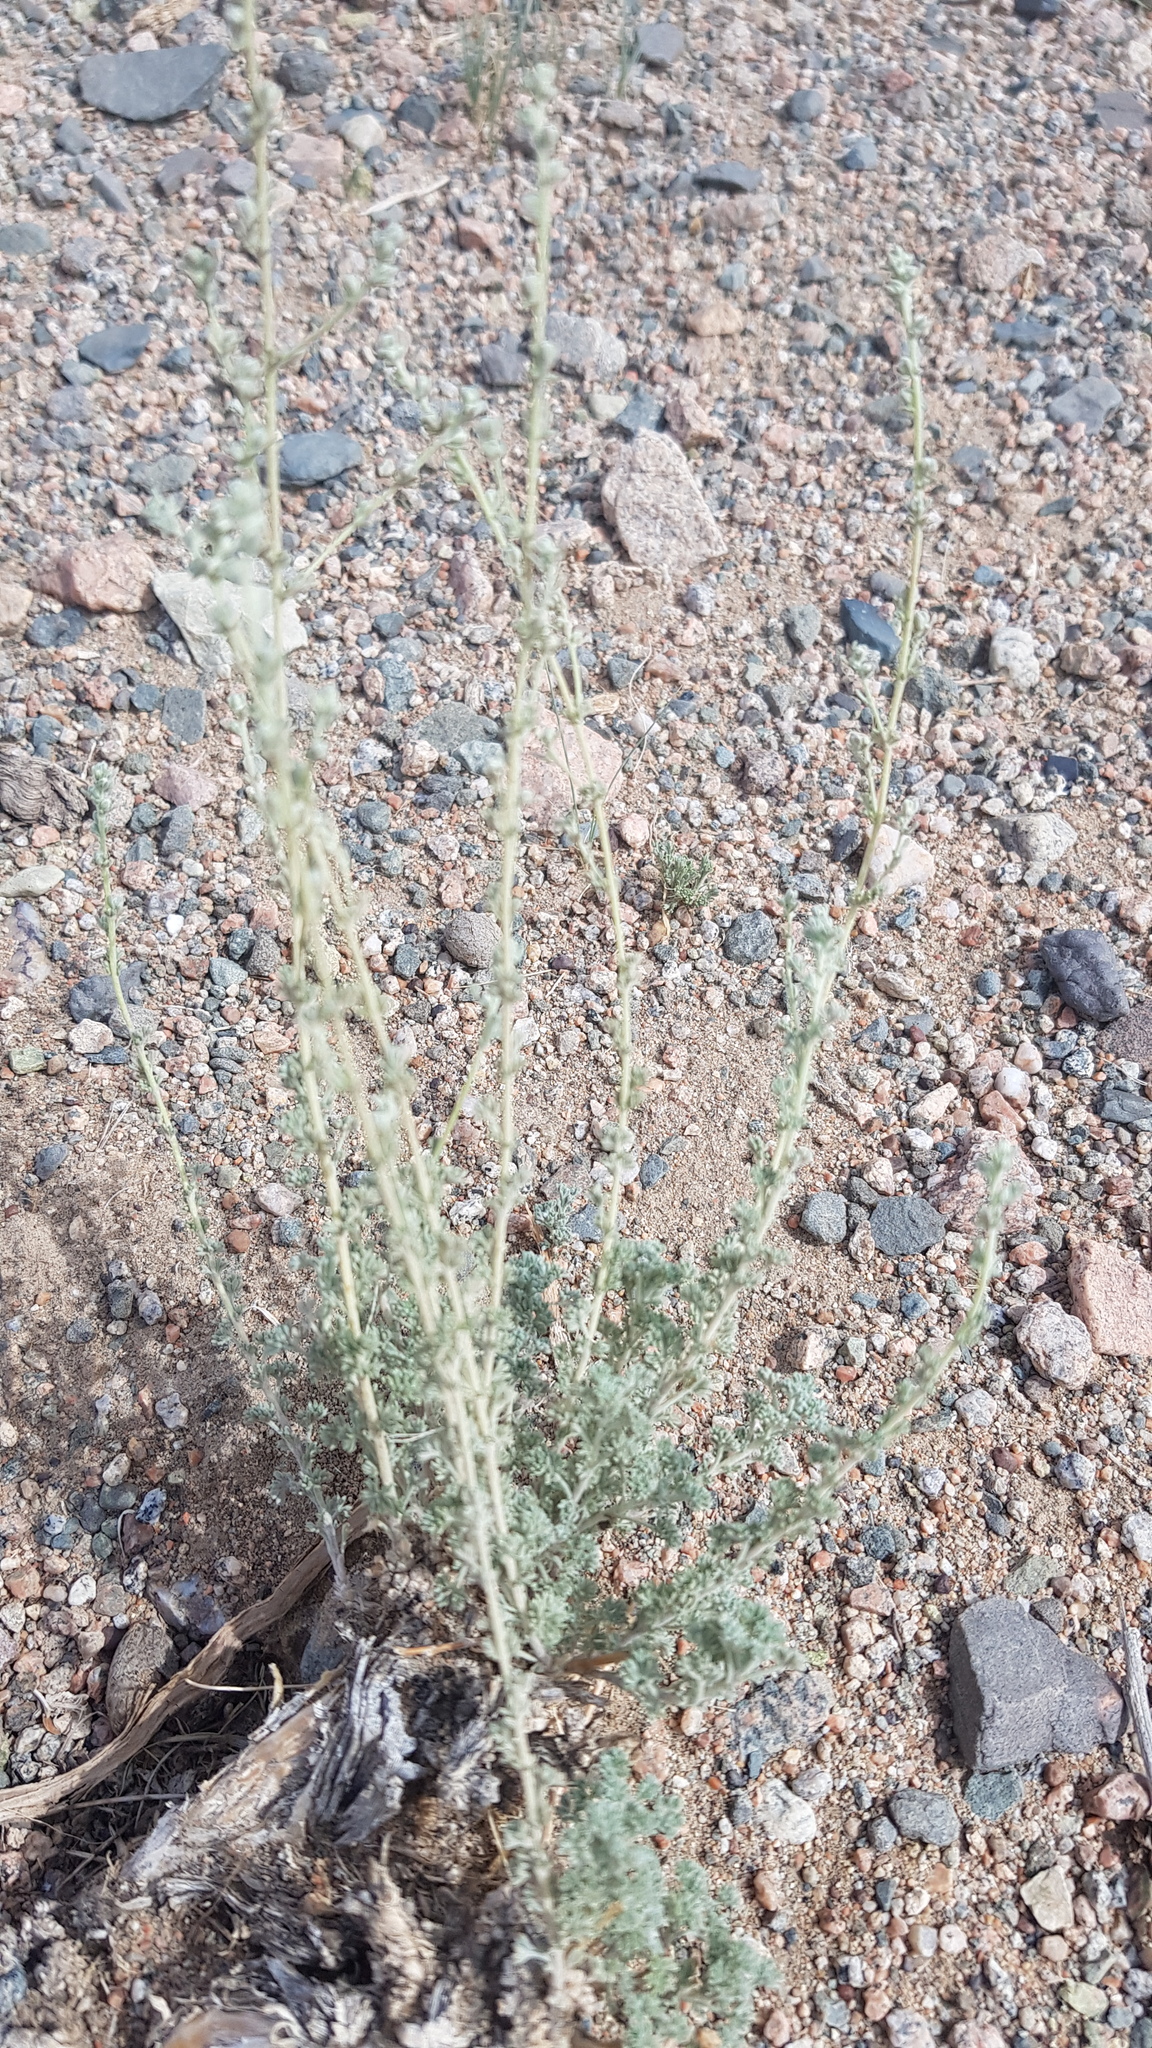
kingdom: Plantae
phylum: Tracheophyta
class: Magnoliopsida
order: Asterales
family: Asteraceae
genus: Artemisia
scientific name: Artemisia xerophytica
